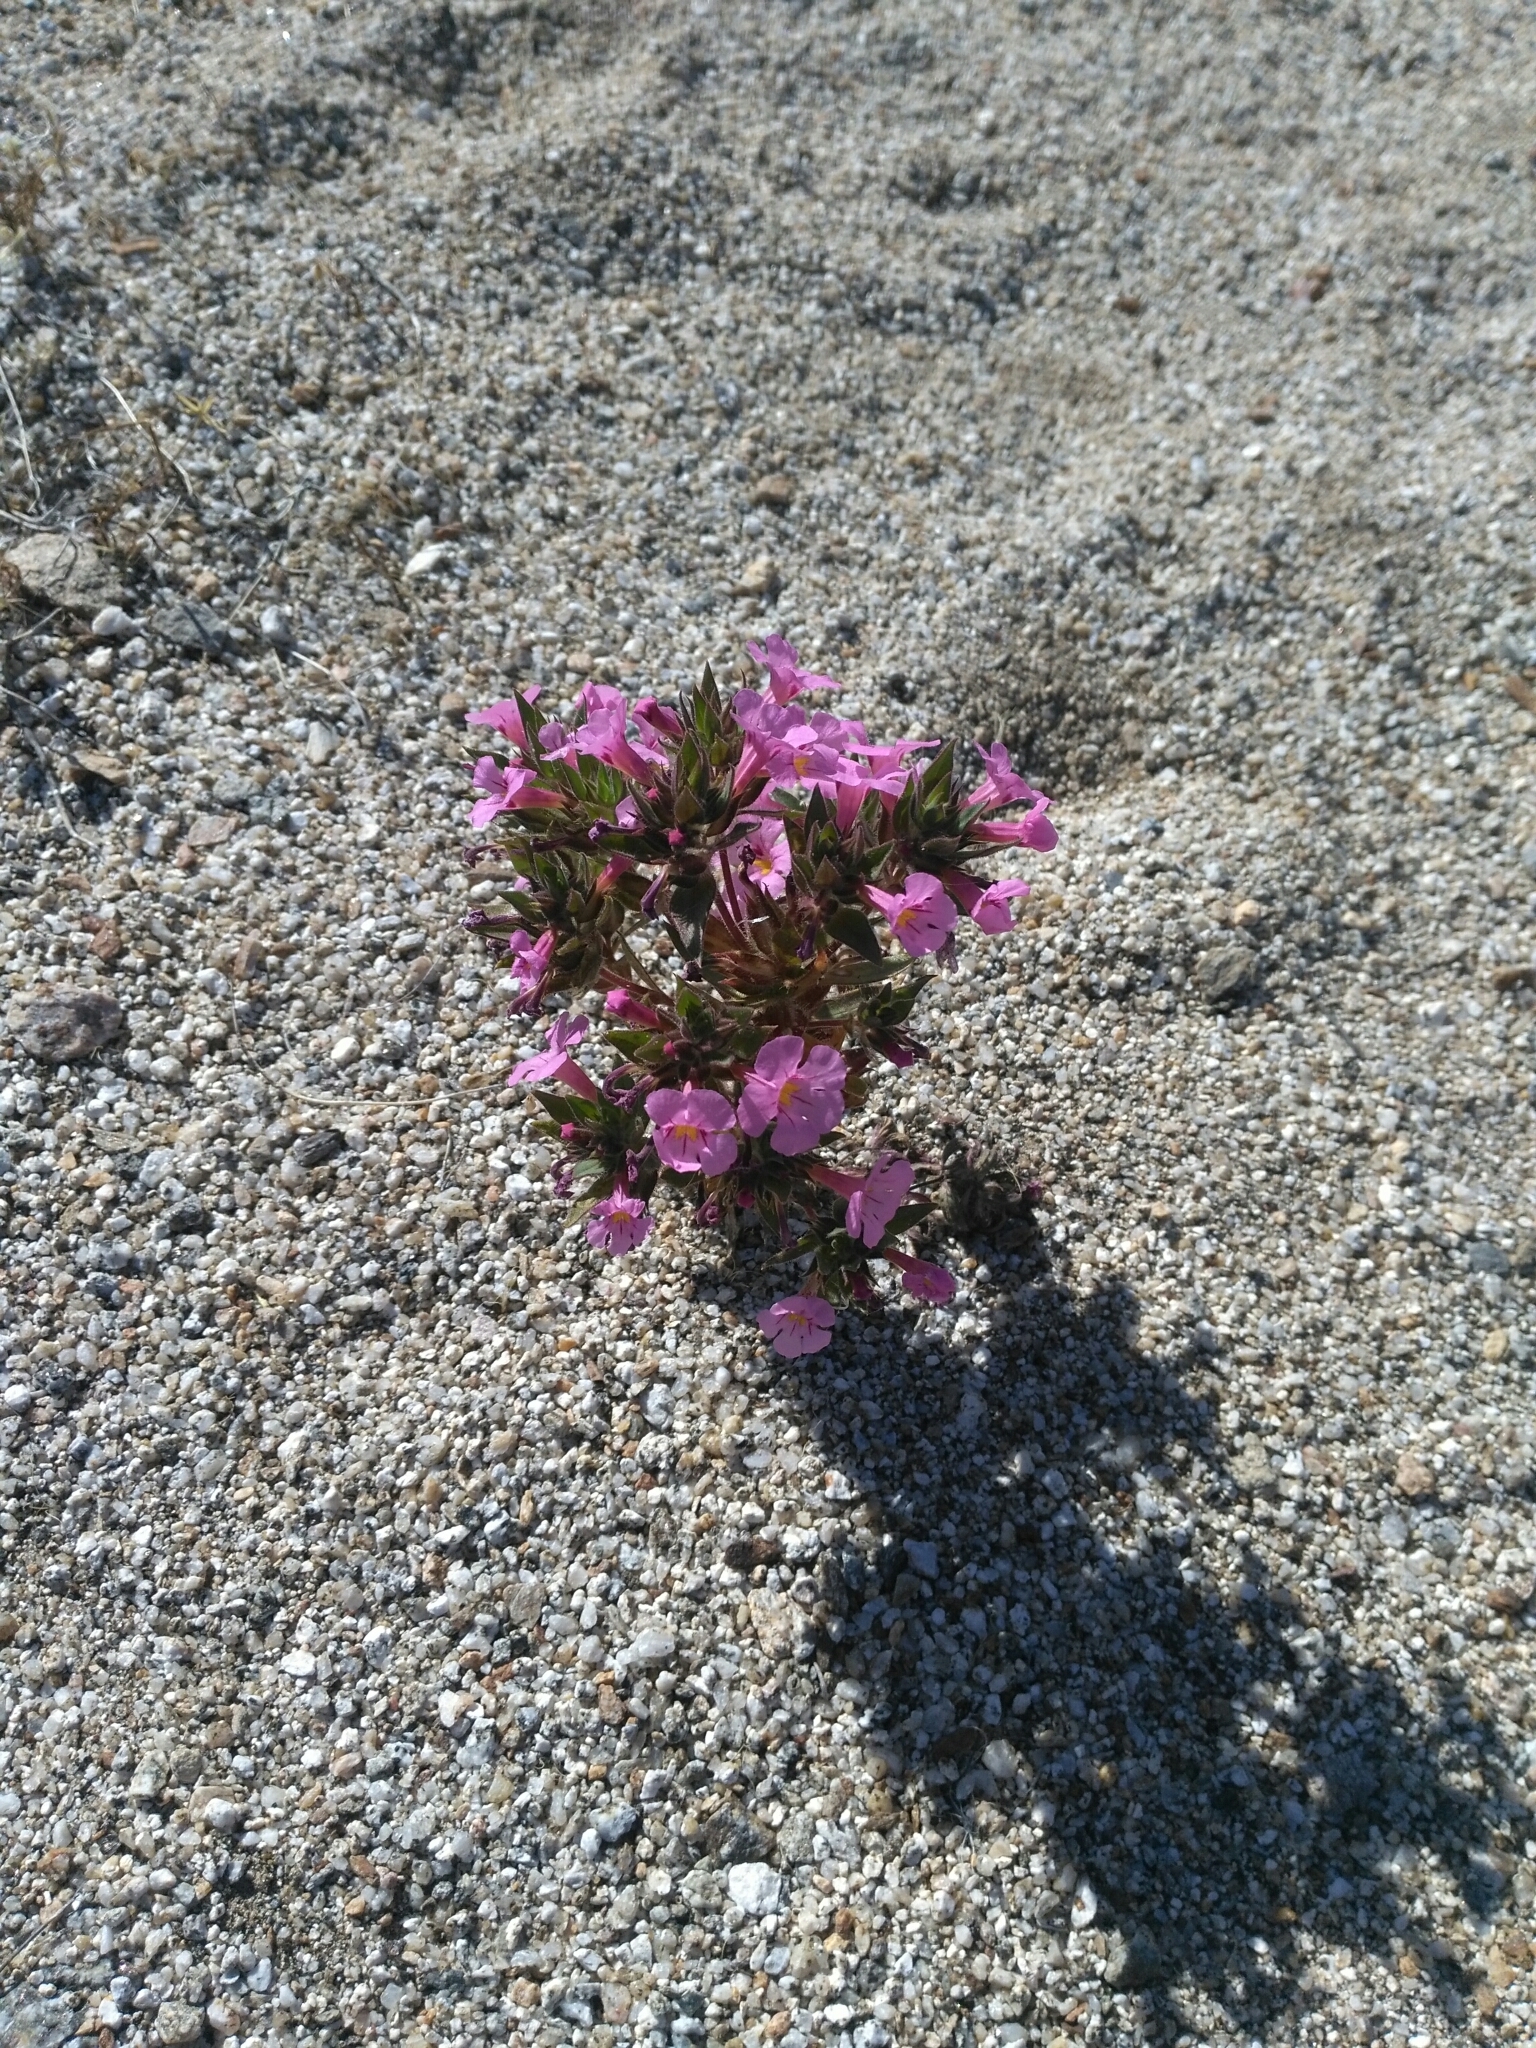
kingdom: Plantae
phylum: Tracheophyta
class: Magnoliopsida
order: Lamiales
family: Phrymaceae
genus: Diplacus
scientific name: Diplacus bigelovii
